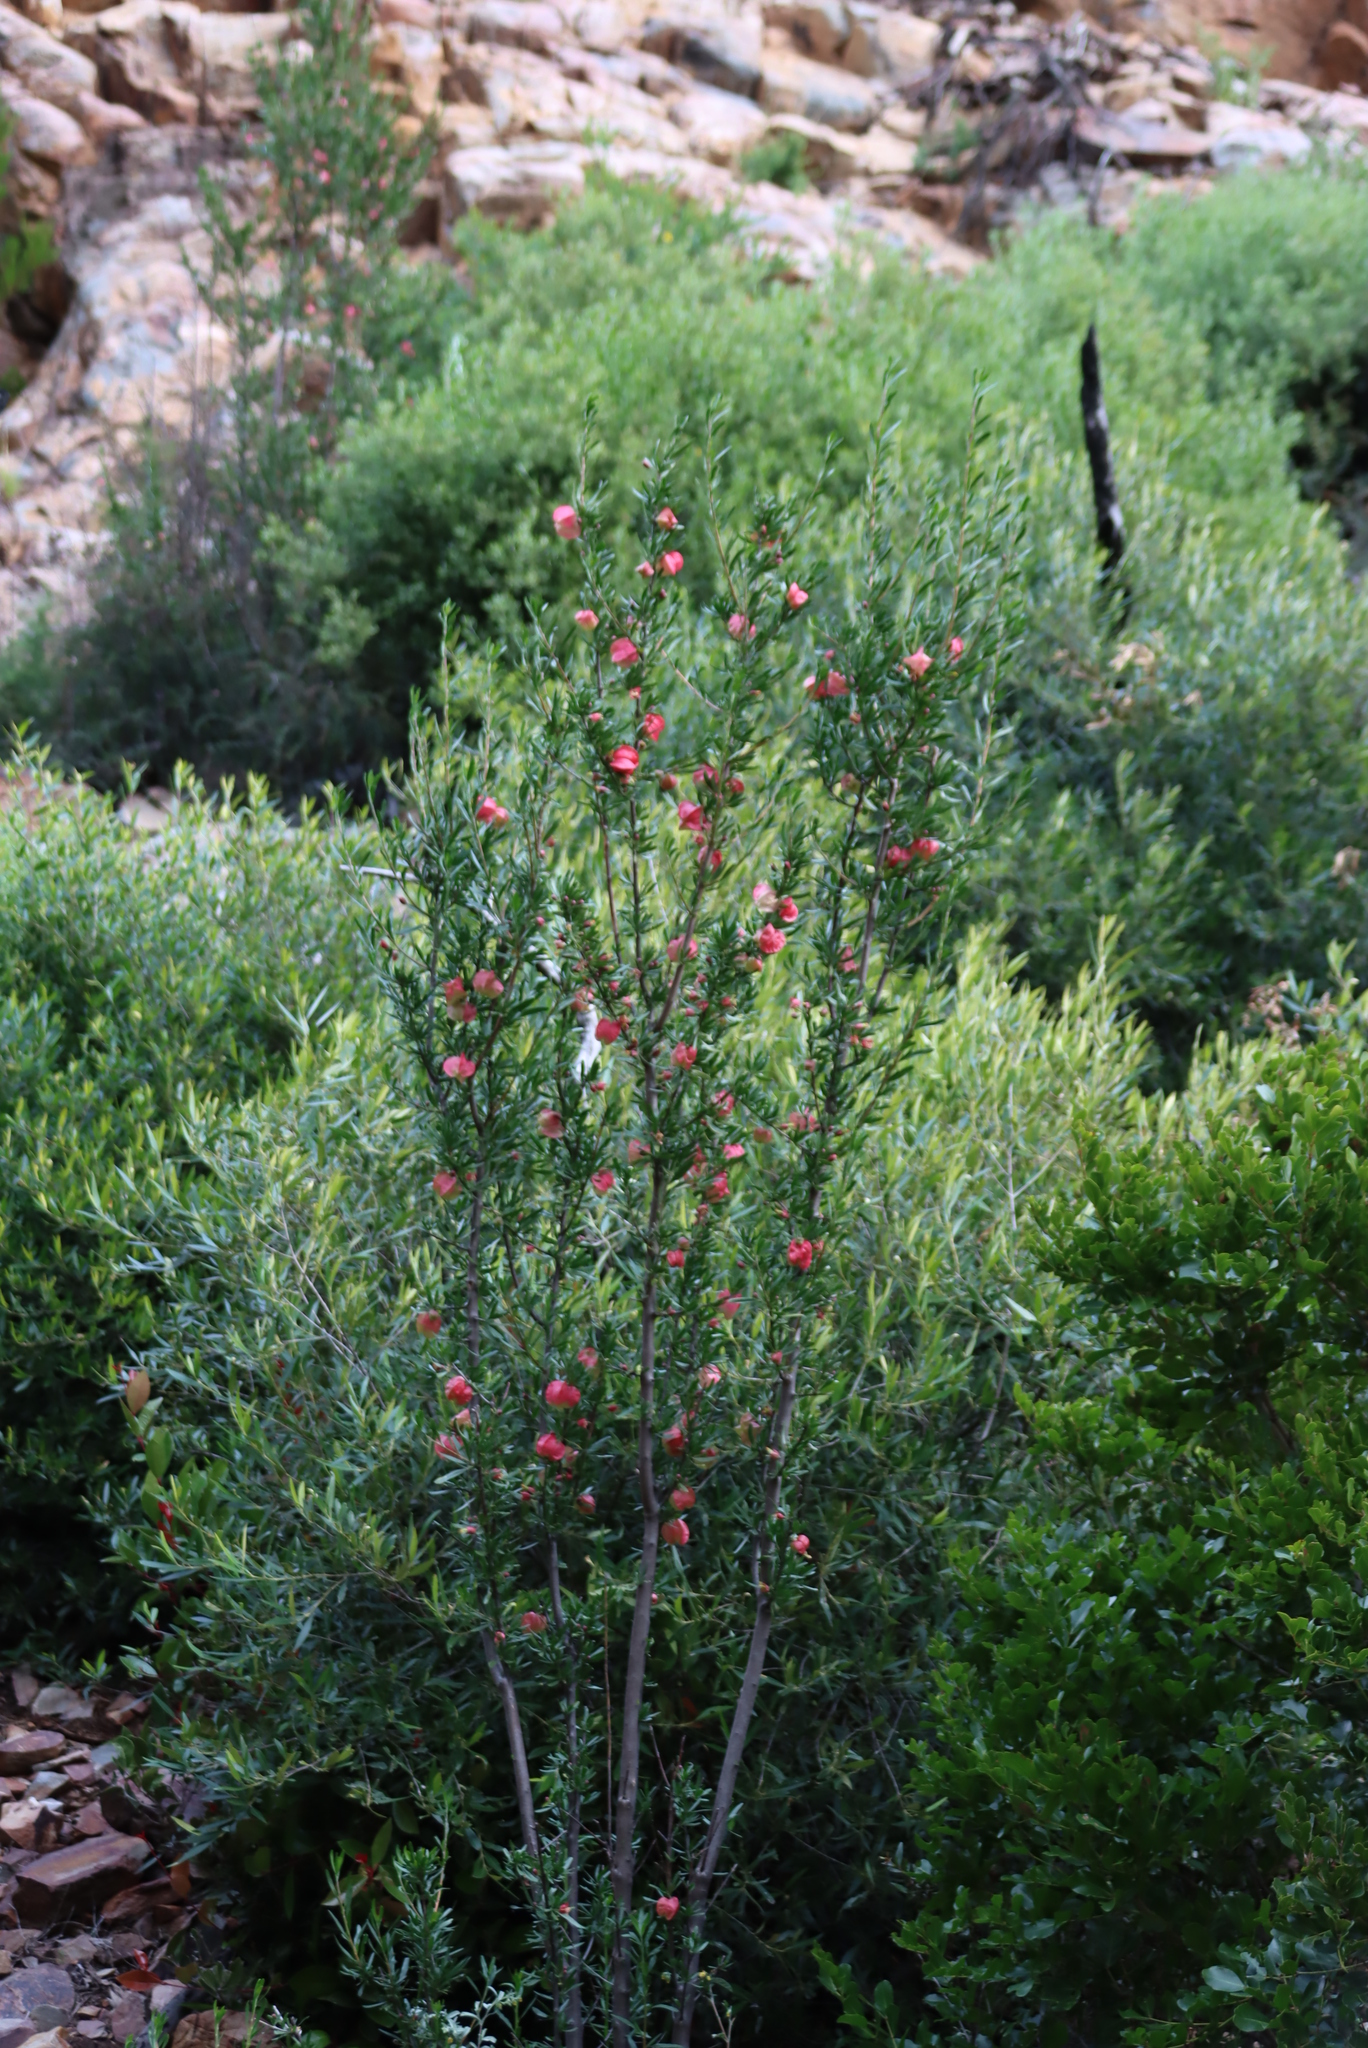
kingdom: Plantae
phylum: Tracheophyta
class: Magnoliopsida
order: Sapindales
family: Meliaceae
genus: Nymania
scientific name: Nymania capensis
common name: Chinese lantern tree
